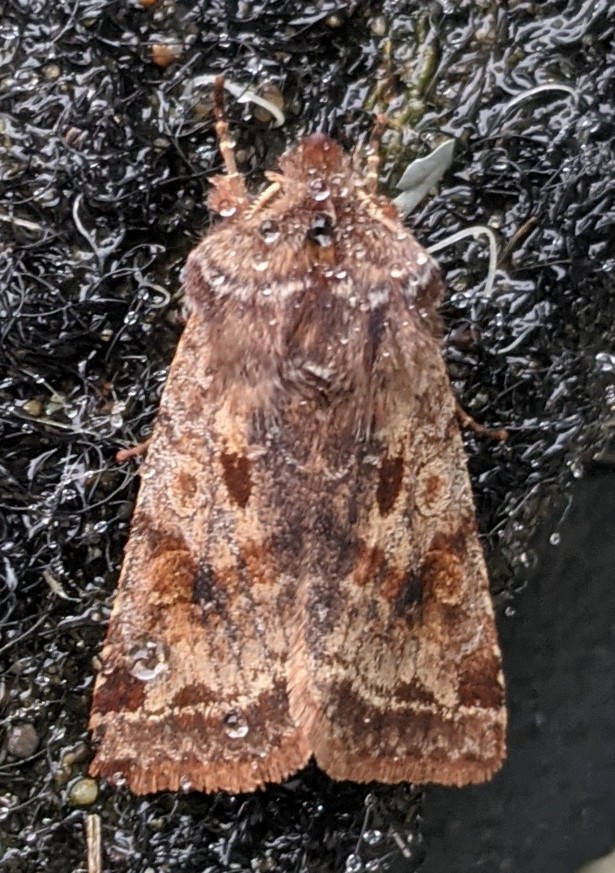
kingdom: Animalia
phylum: Arthropoda
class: Insecta
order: Lepidoptera
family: Noctuidae
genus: Cerastis
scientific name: Cerastis salicarum
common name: Willow dart
